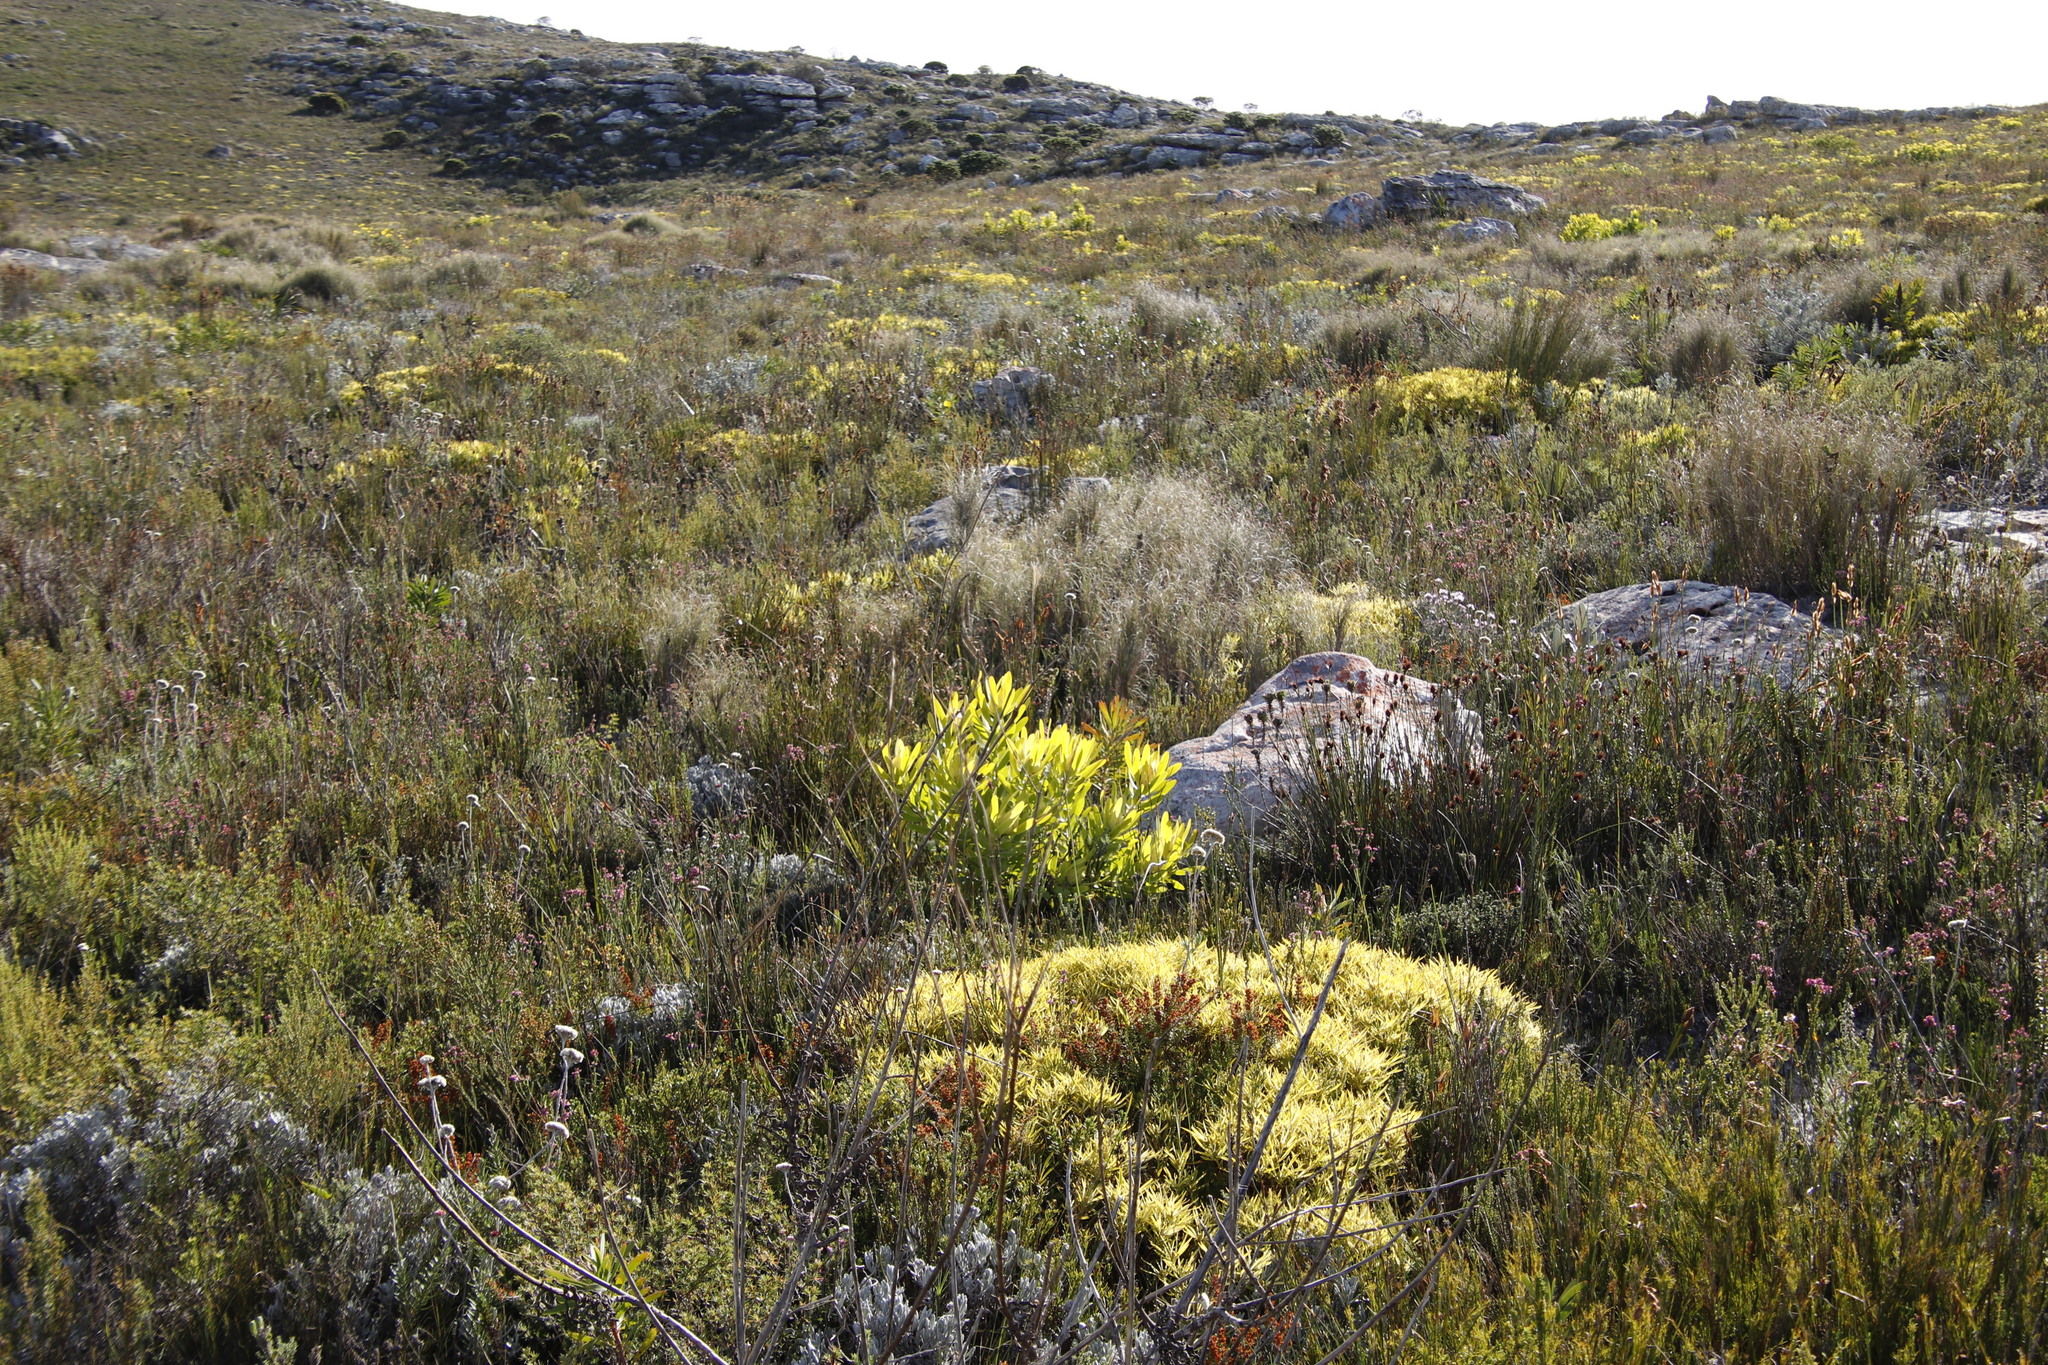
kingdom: Plantae
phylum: Tracheophyta
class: Magnoliopsida
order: Proteales
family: Proteaceae
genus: Leucadendron
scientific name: Leucadendron laureolum
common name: Golden sunshinebush
